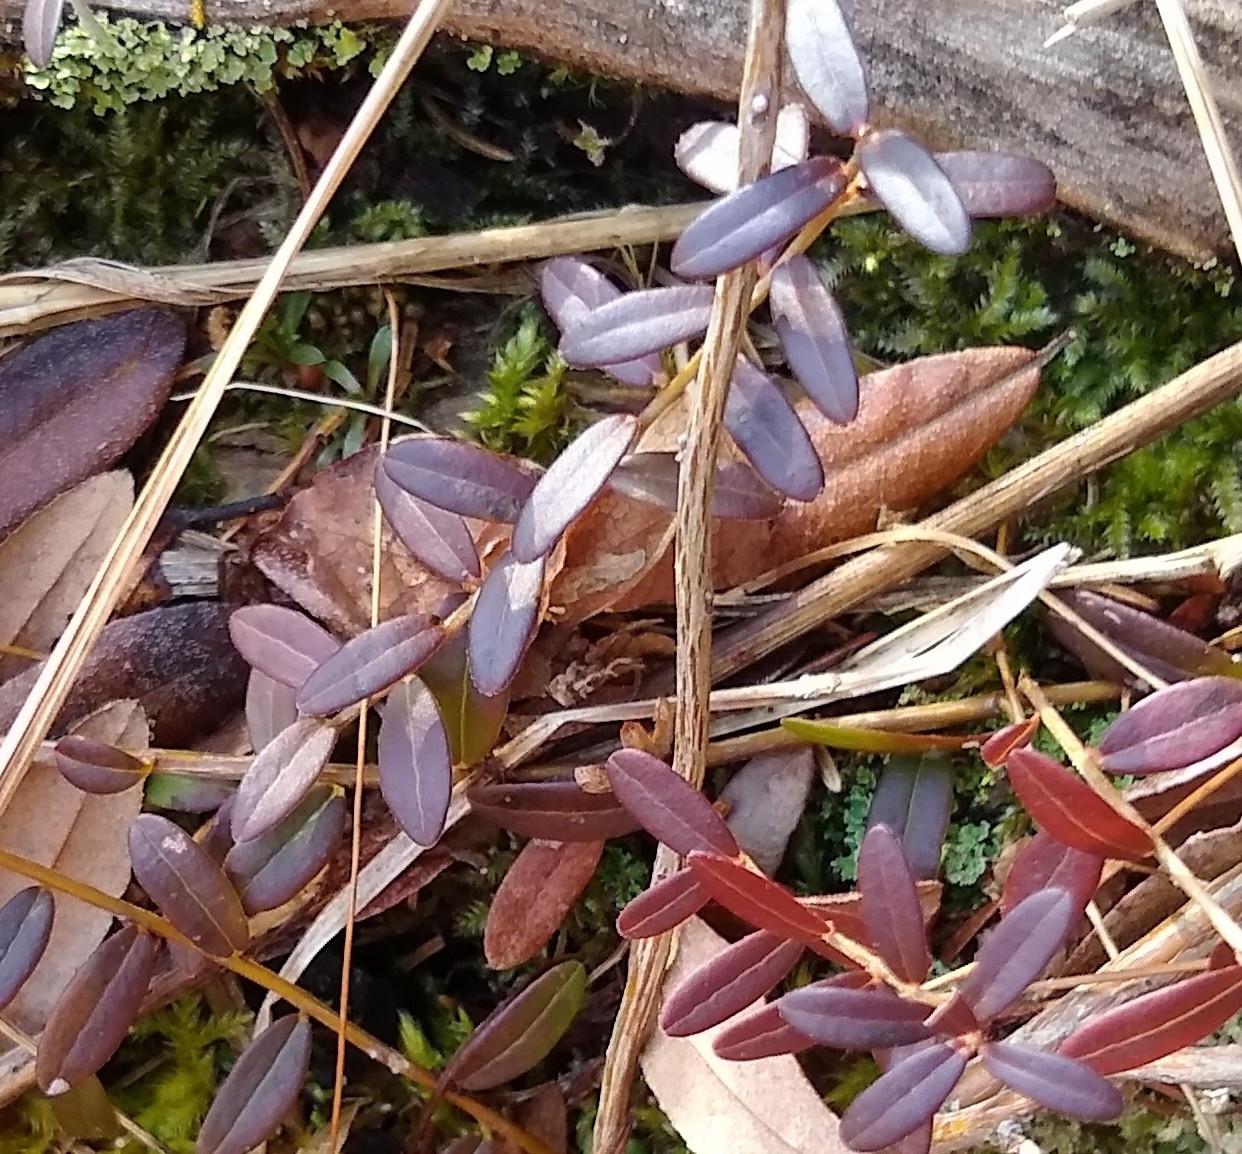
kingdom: Plantae
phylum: Tracheophyta
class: Magnoliopsida
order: Ericales
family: Ericaceae
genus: Vaccinium
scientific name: Vaccinium macrocarpon
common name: American cranberry
